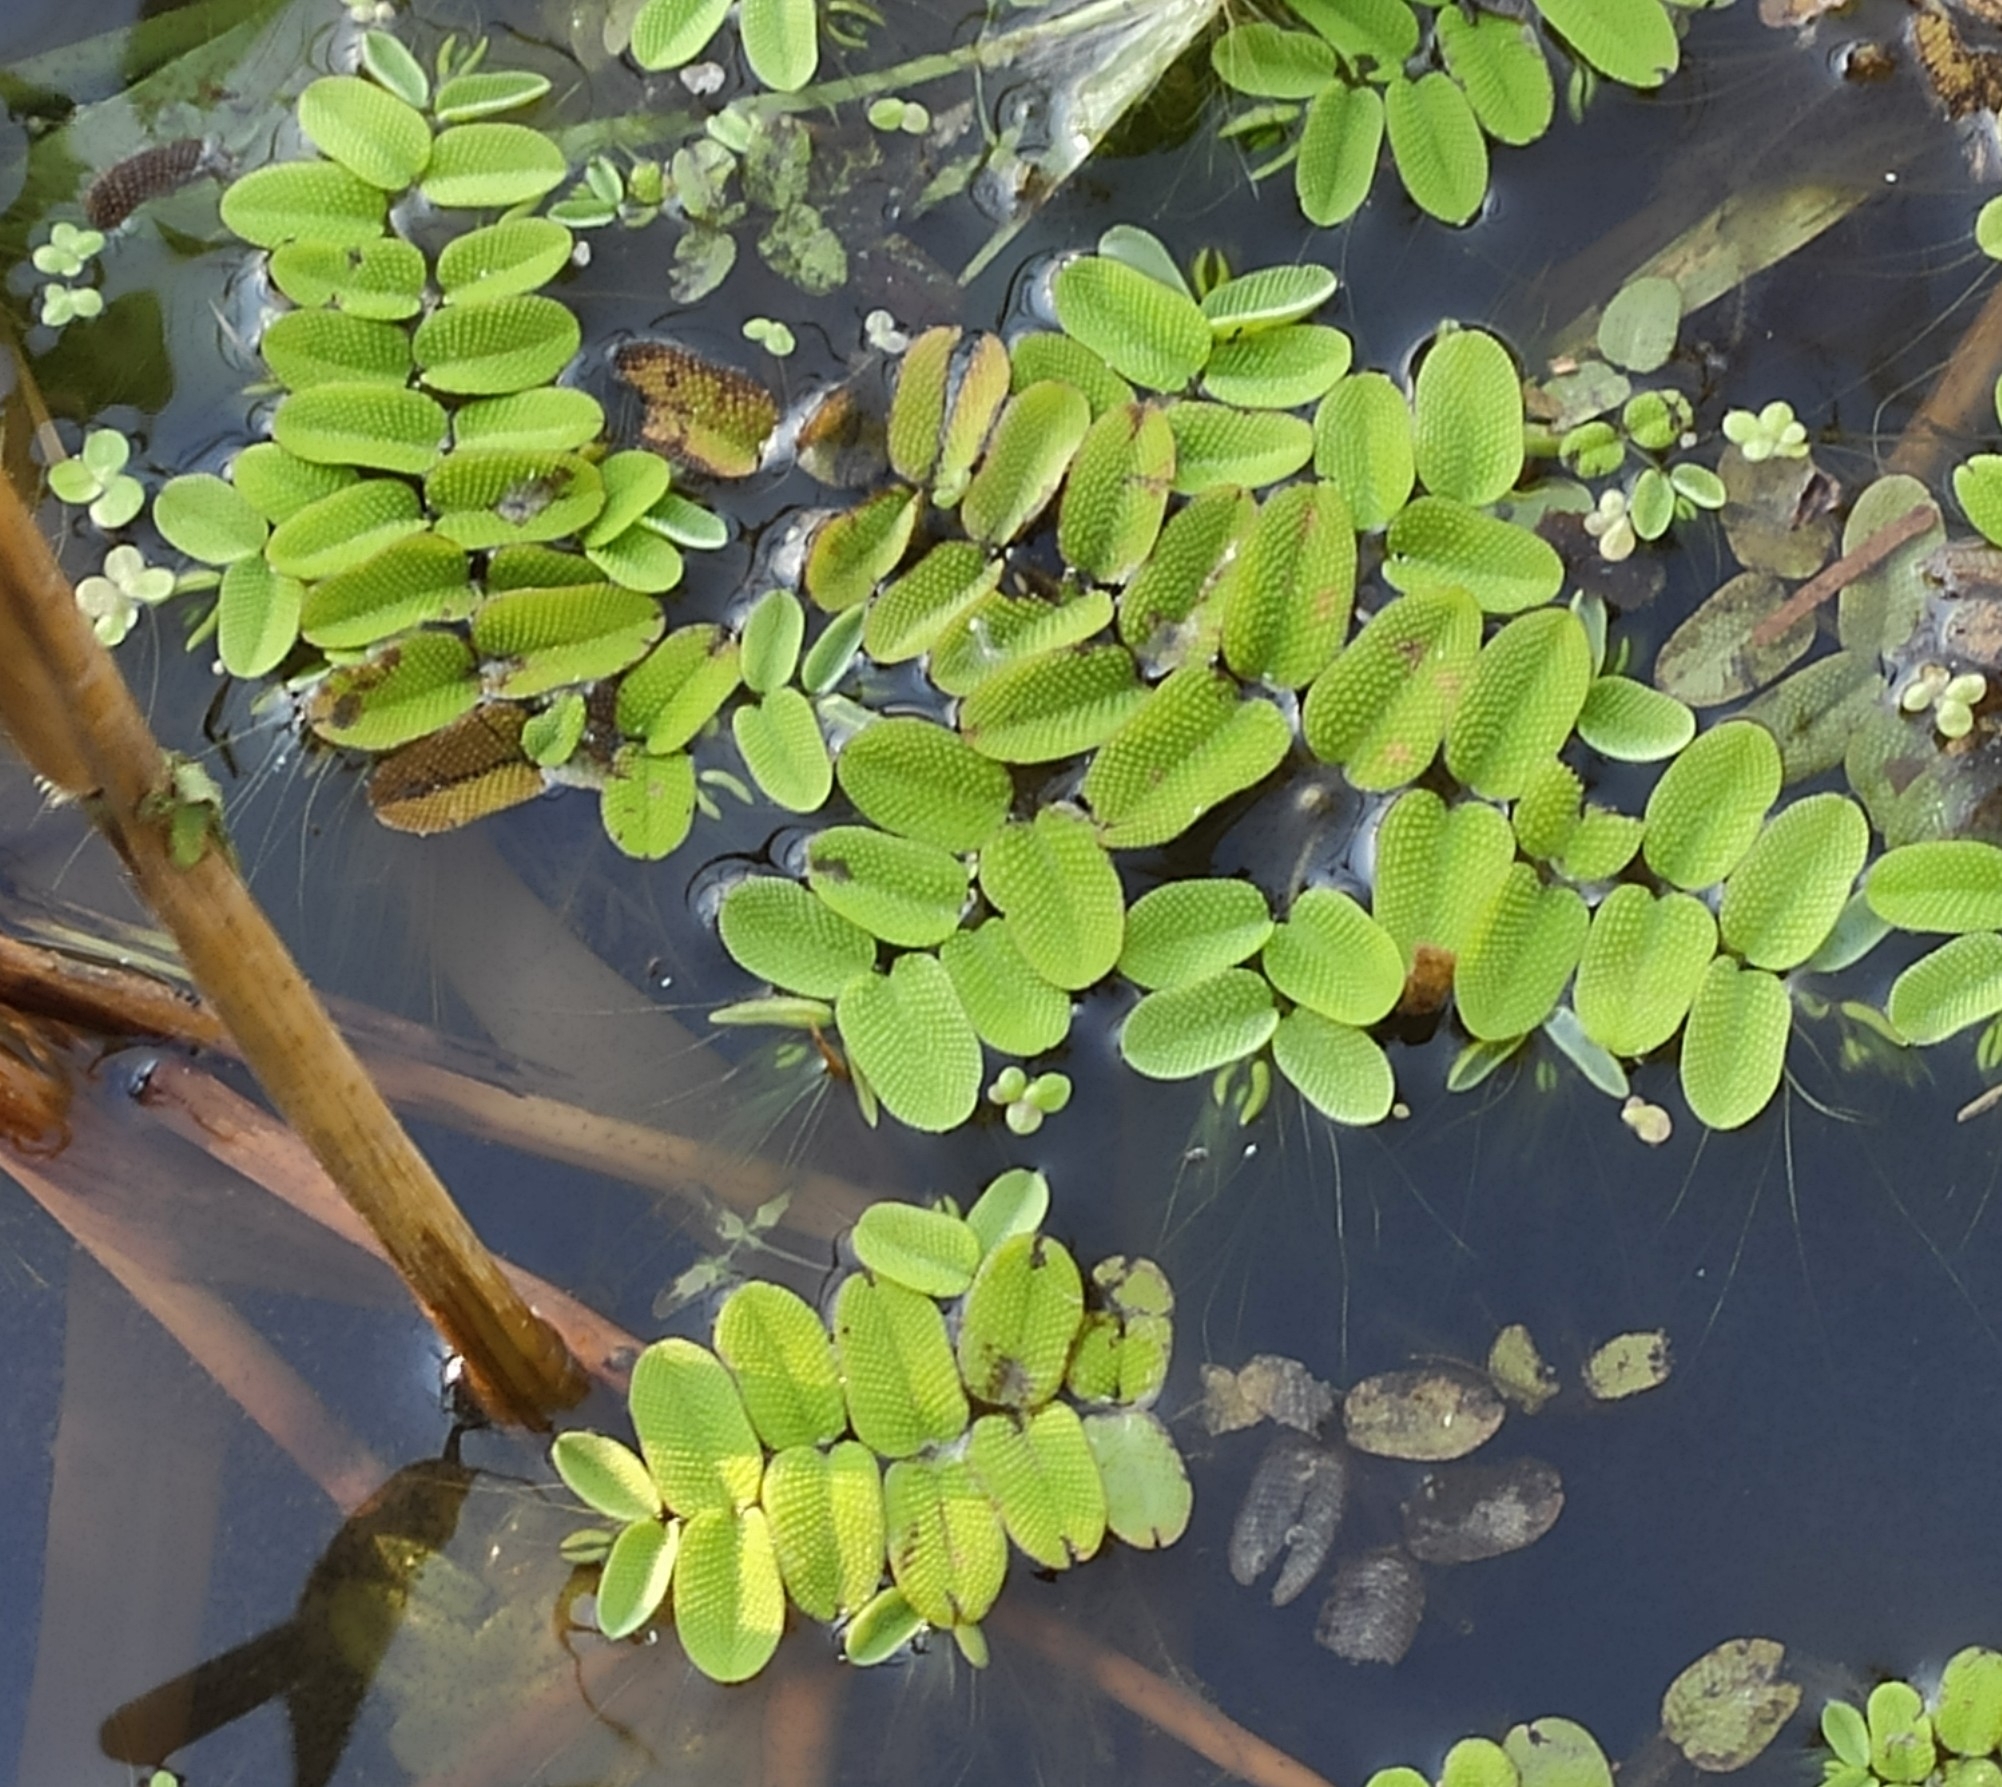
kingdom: Plantae
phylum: Tracheophyta
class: Polypodiopsida
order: Salviniales
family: Salviniaceae
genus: Salvinia
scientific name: Salvinia natans
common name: Floating fern
